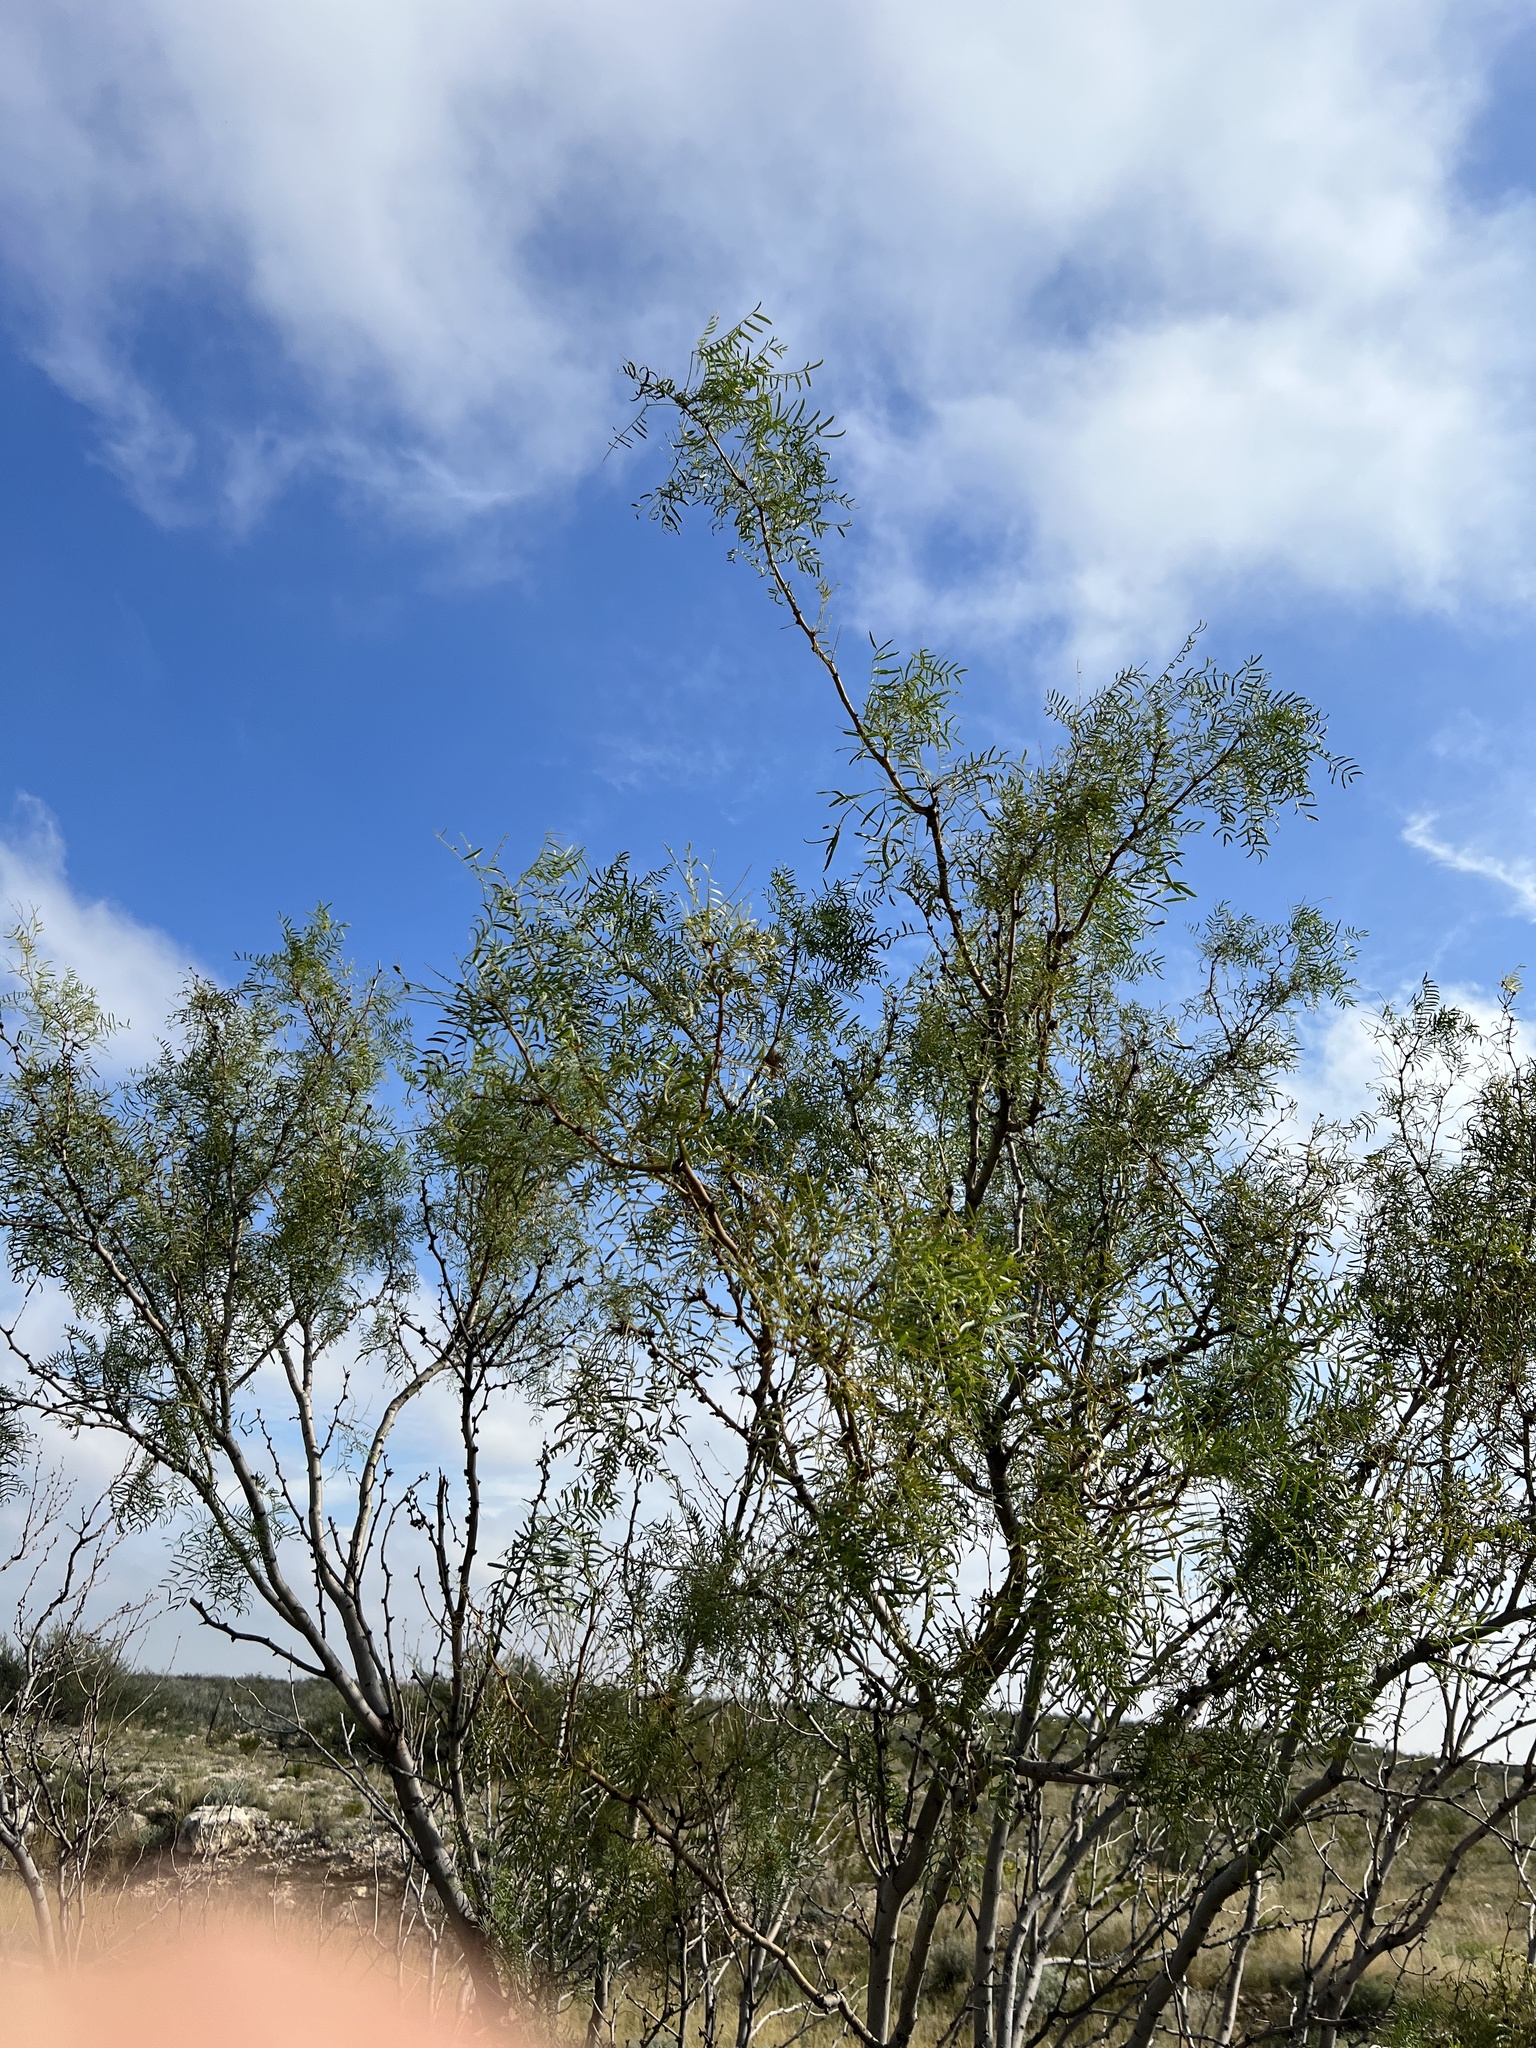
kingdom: Plantae
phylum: Tracheophyta
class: Magnoliopsida
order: Fabales
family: Fabaceae
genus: Prosopis
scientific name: Prosopis glandulosa
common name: Honey mesquite
